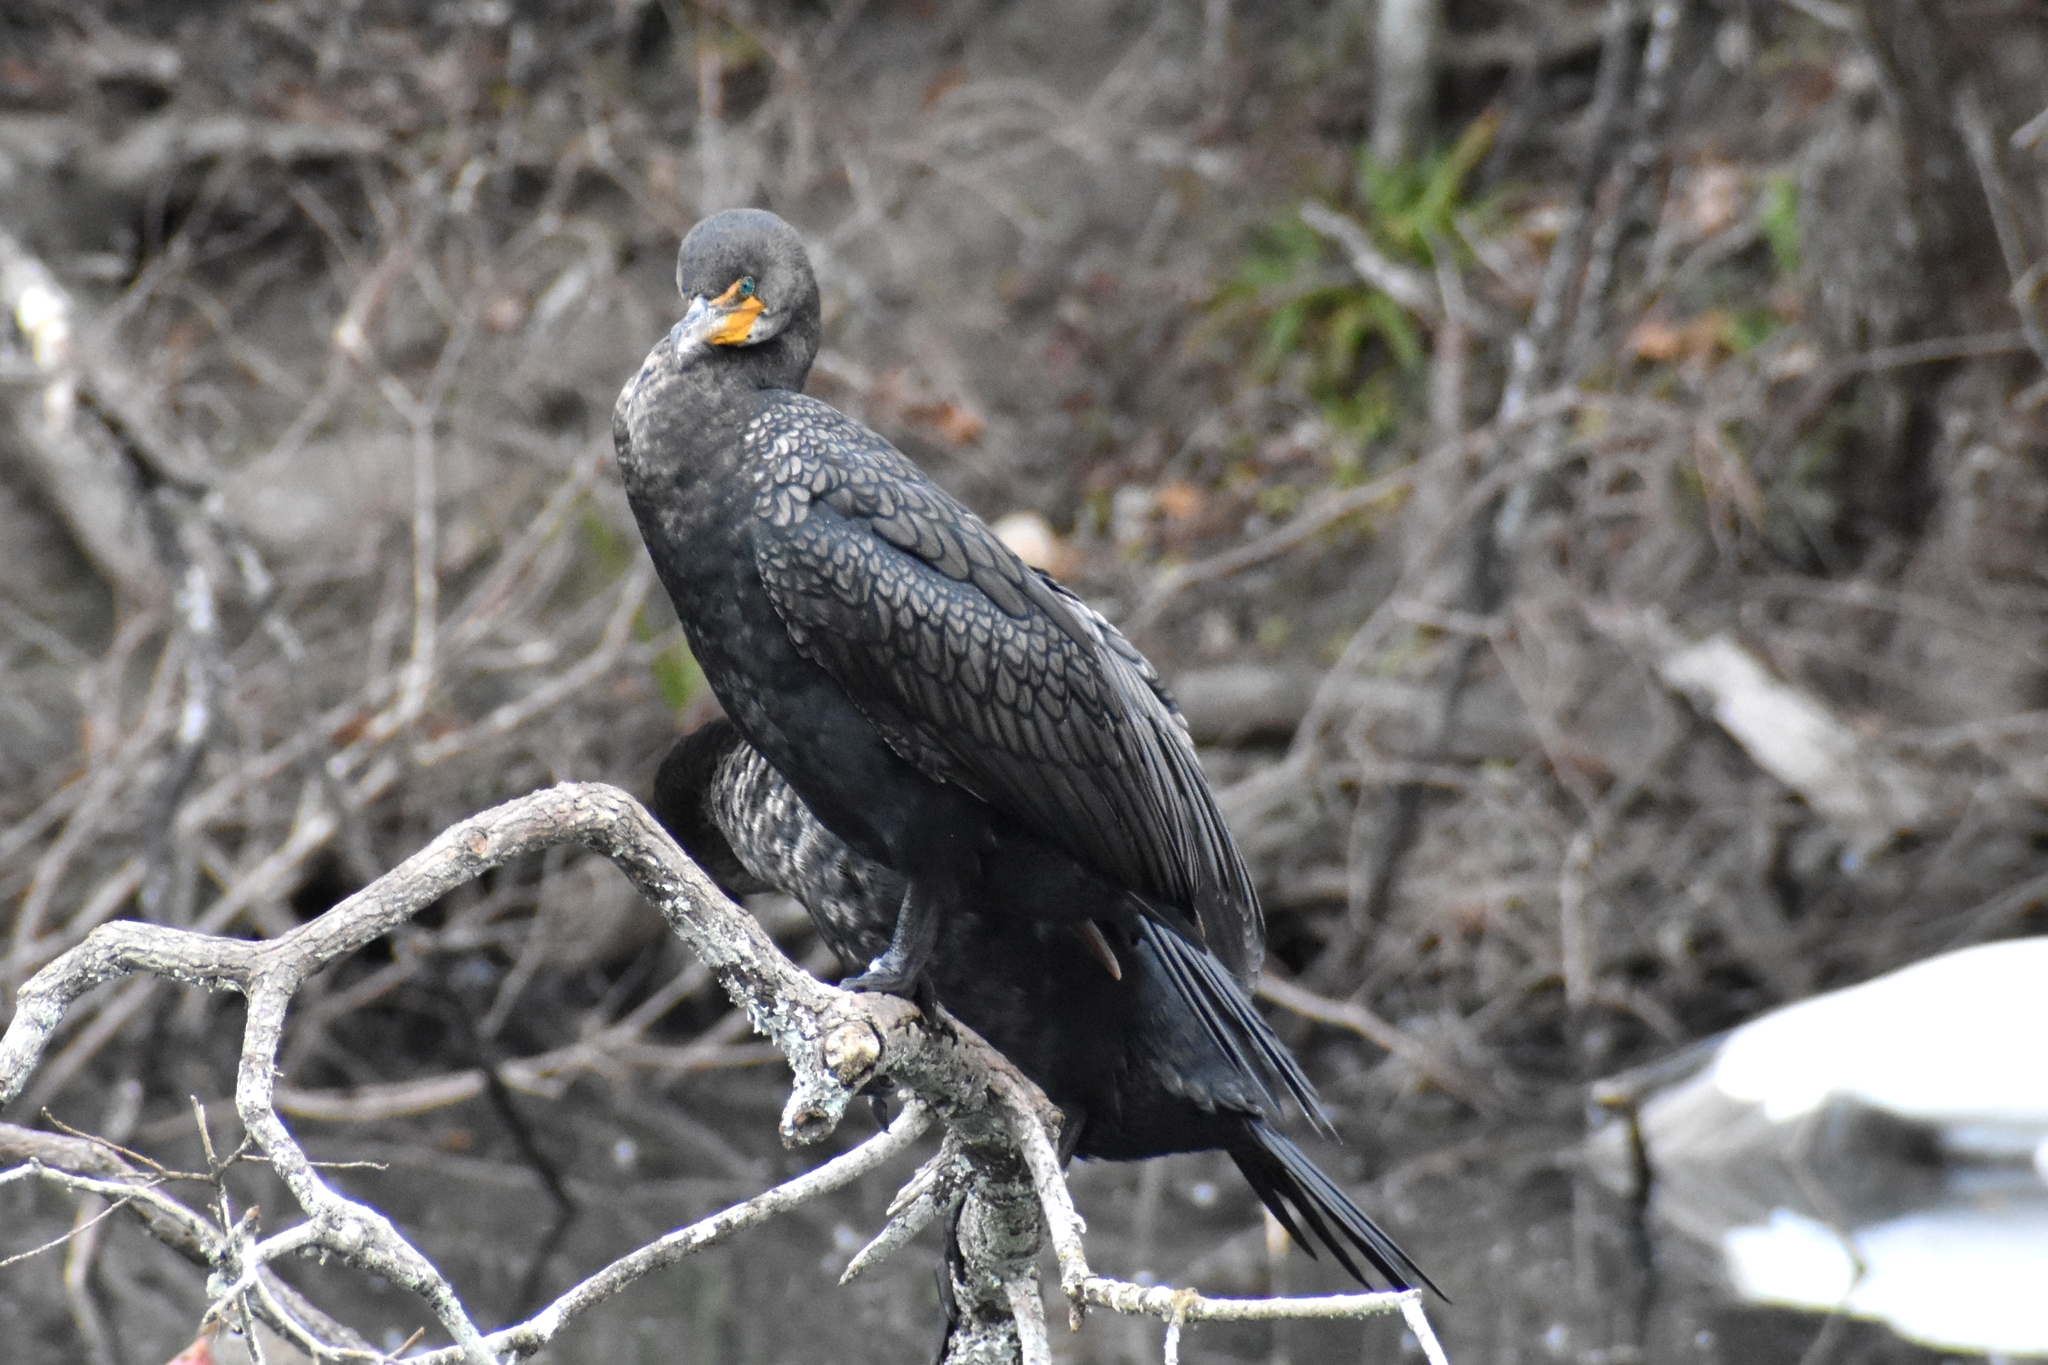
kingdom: Animalia
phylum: Chordata
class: Aves
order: Suliformes
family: Phalacrocoracidae
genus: Phalacrocorax
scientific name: Phalacrocorax auritus
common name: Double-crested cormorant
